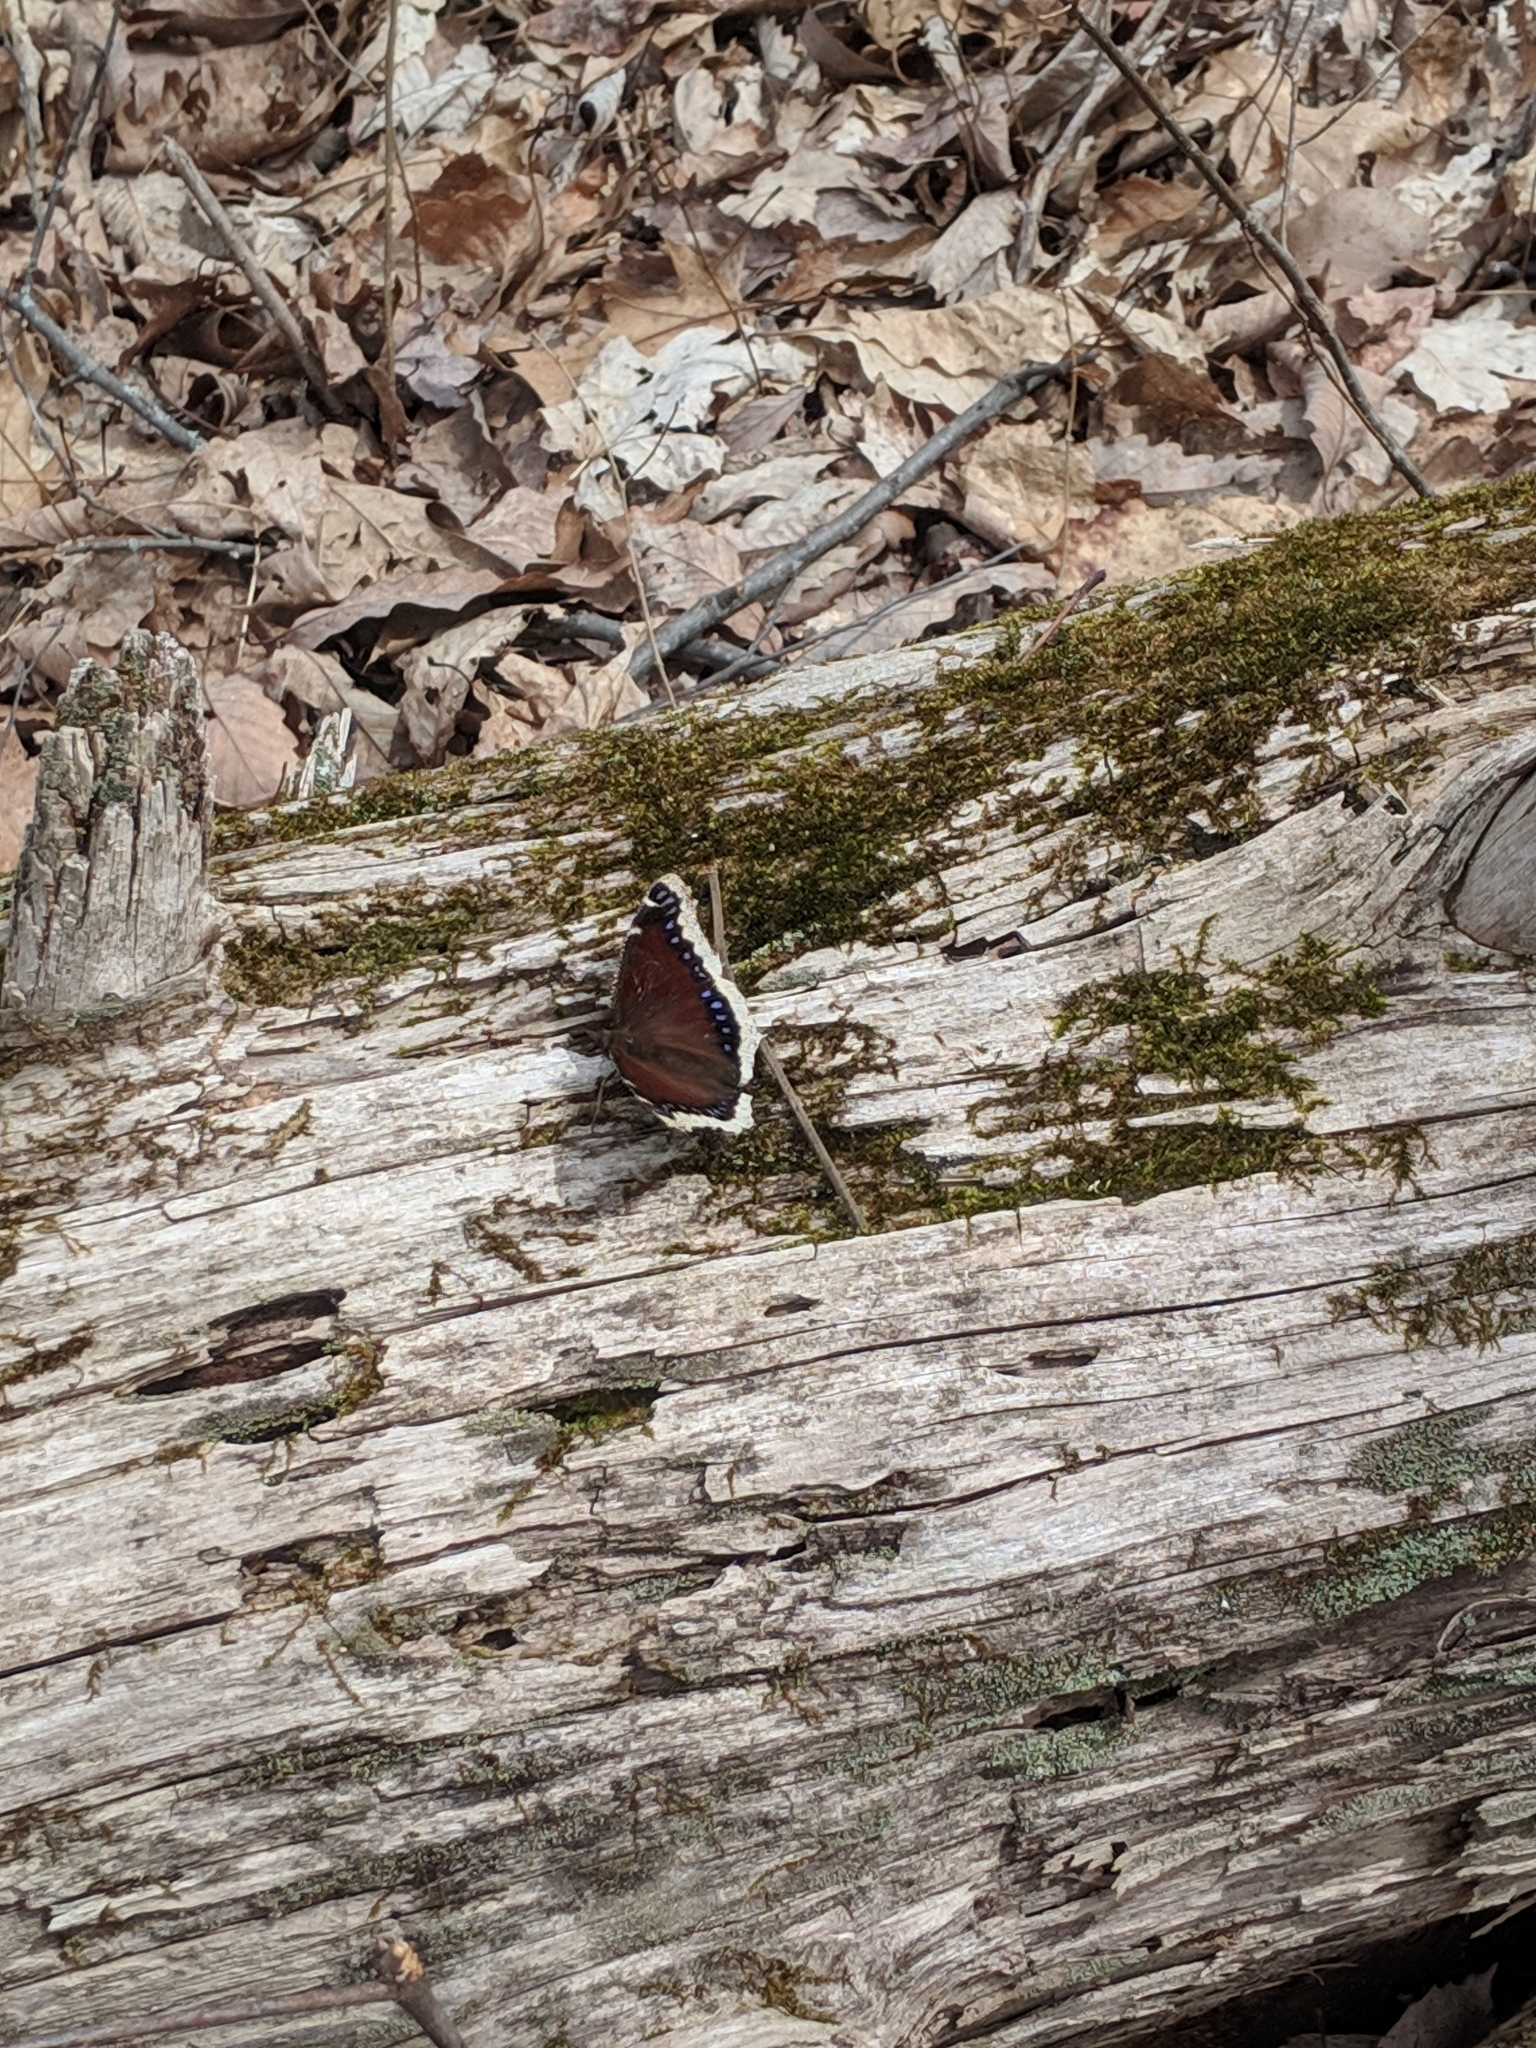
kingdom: Animalia
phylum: Arthropoda
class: Insecta
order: Lepidoptera
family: Nymphalidae
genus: Nymphalis
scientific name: Nymphalis antiopa
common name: Camberwell beauty
